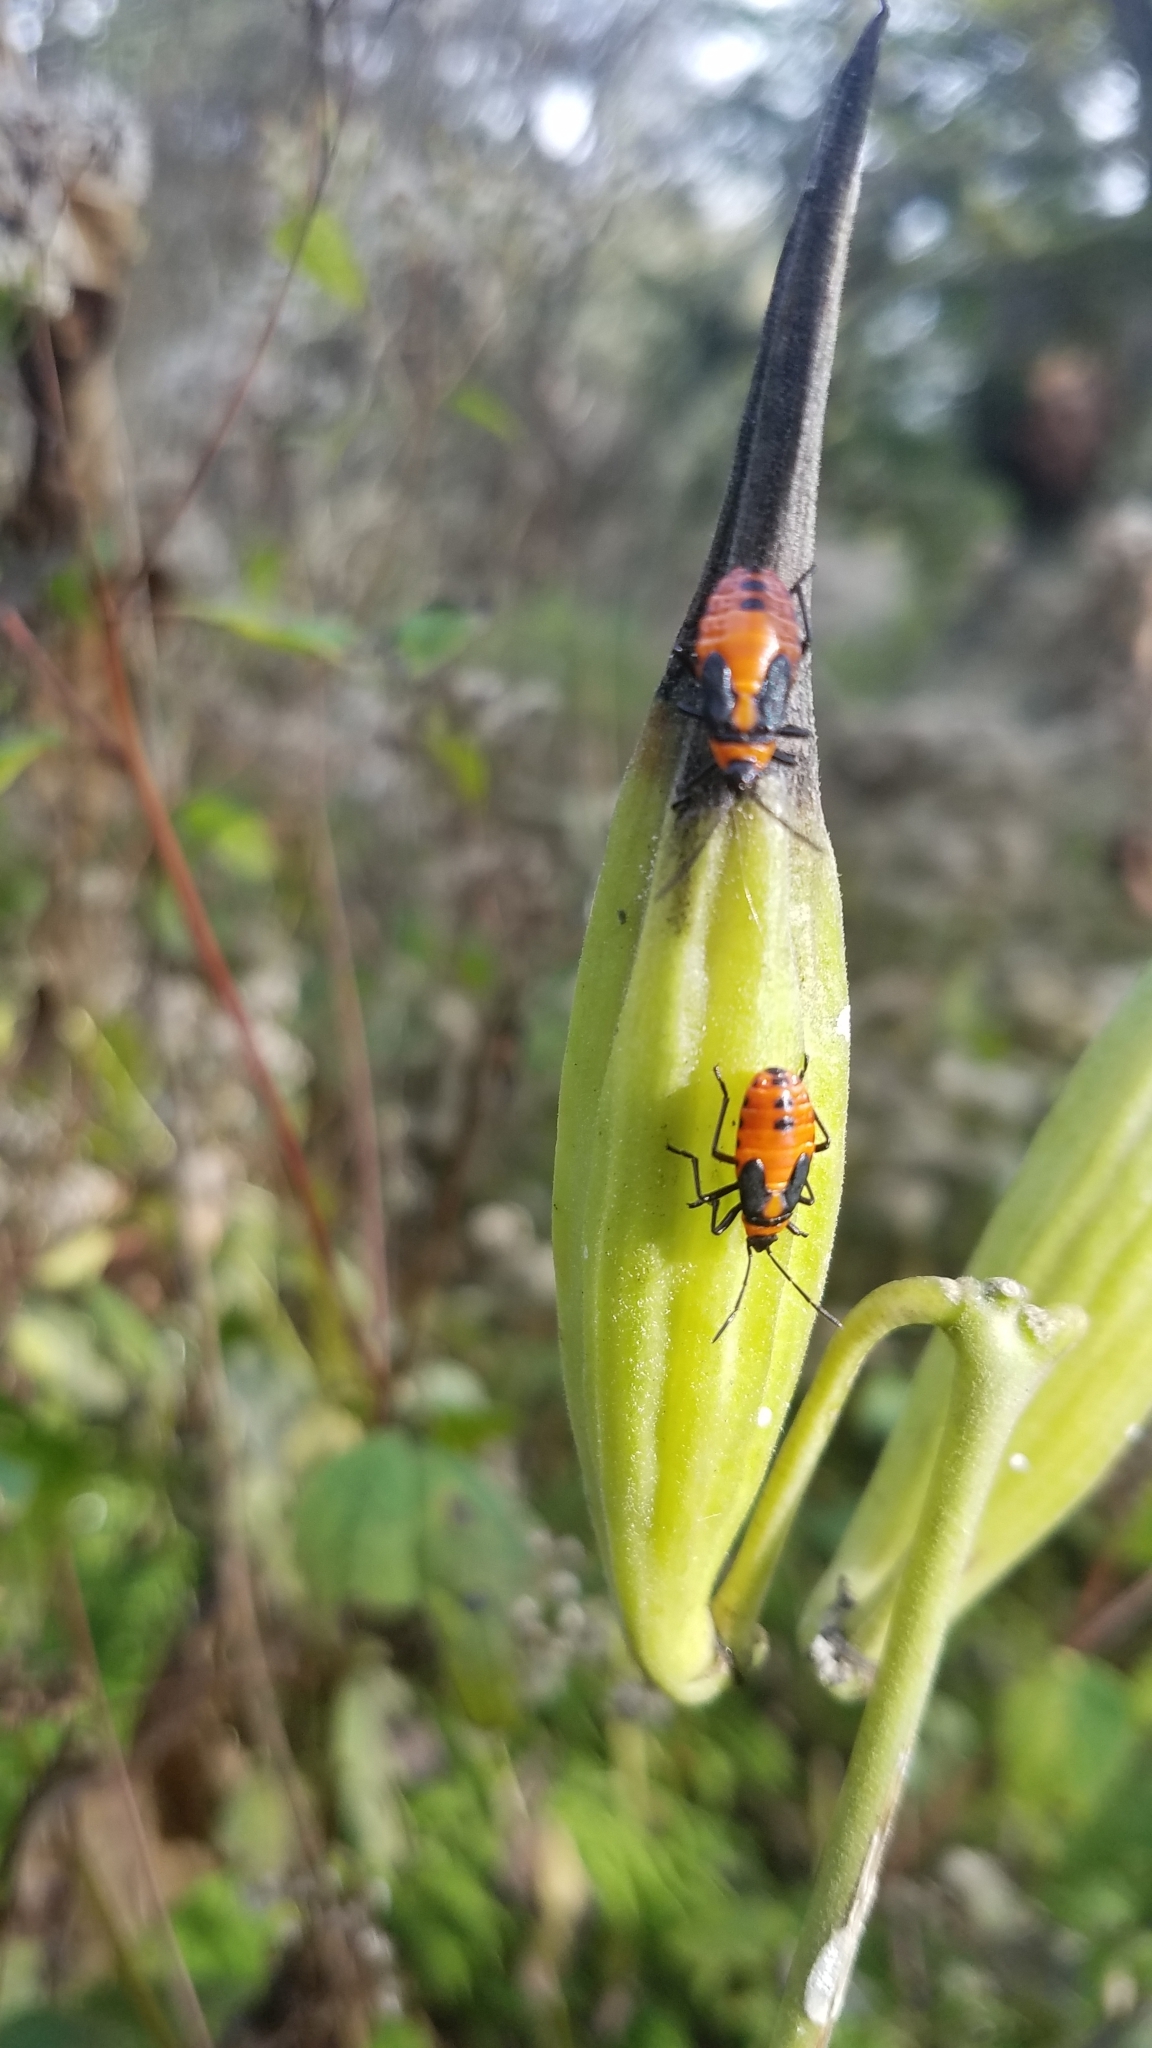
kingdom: Animalia
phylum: Arthropoda
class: Insecta
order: Hemiptera
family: Lygaeidae
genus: Oncopeltus
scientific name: Oncopeltus fasciatus
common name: Large milkweed bug
